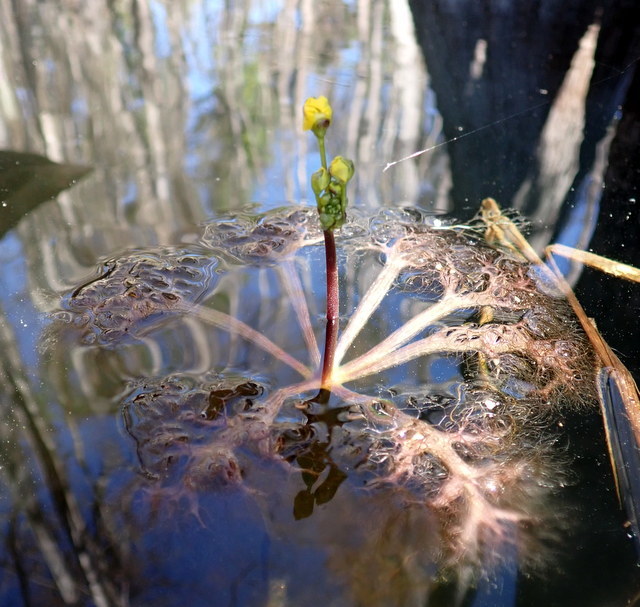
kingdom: Plantae
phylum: Tracheophyta
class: Magnoliopsida
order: Lamiales
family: Lentibulariaceae
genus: Utricularia
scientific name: Utricularia inflata
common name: Floating bladderwort
